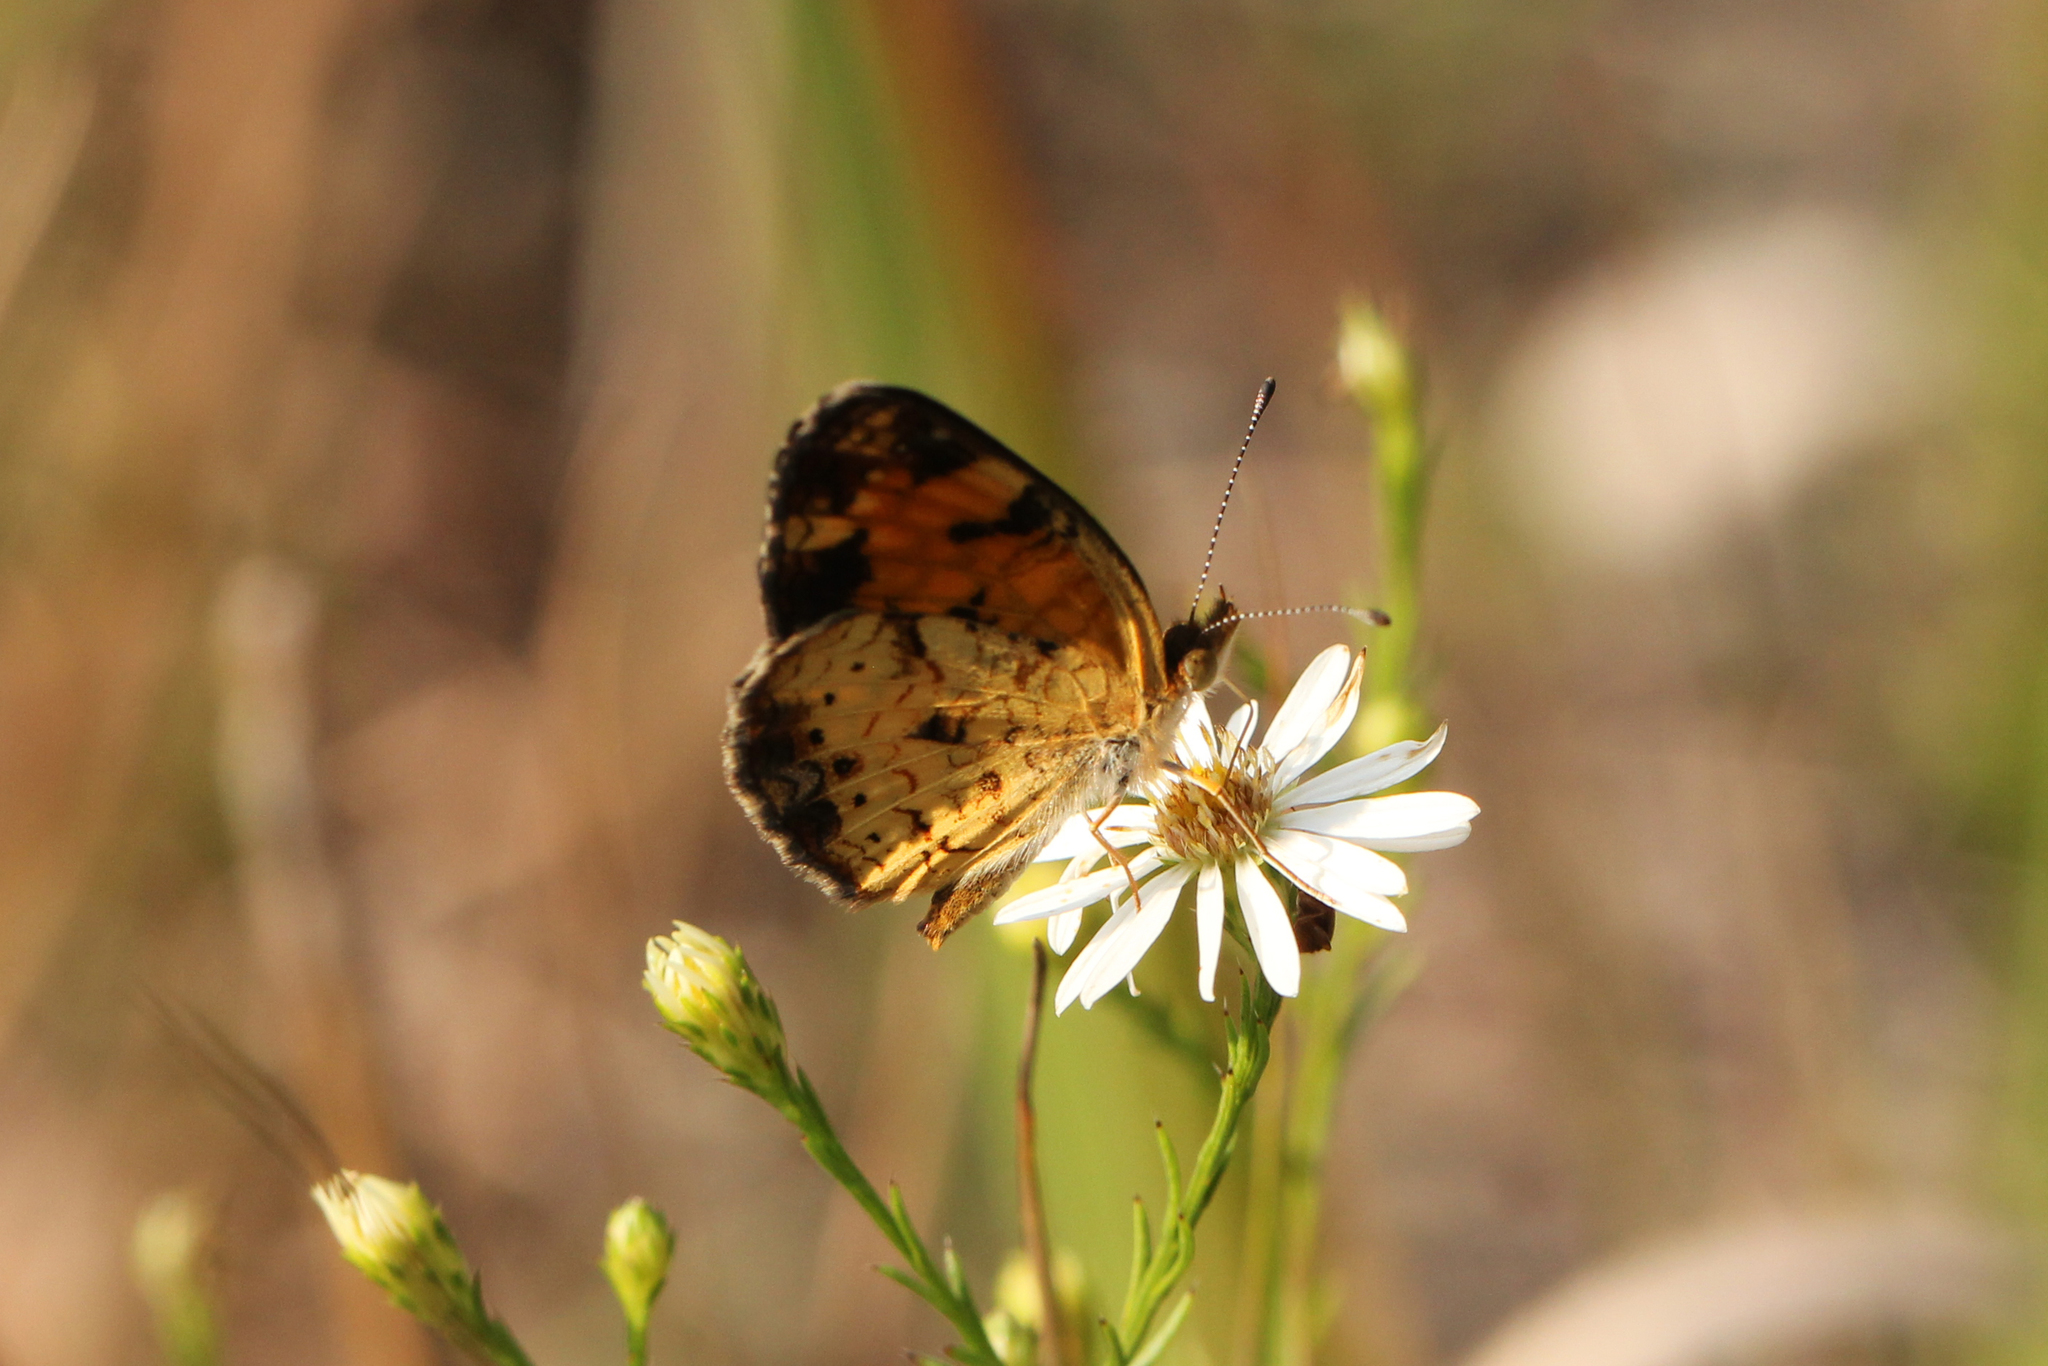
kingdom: Animalia
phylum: Arthropoda
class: Insecta
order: Lepidoptera
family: Nymphalidae
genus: Phyciodes
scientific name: Phyciodes tharos
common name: Pearl crescent
